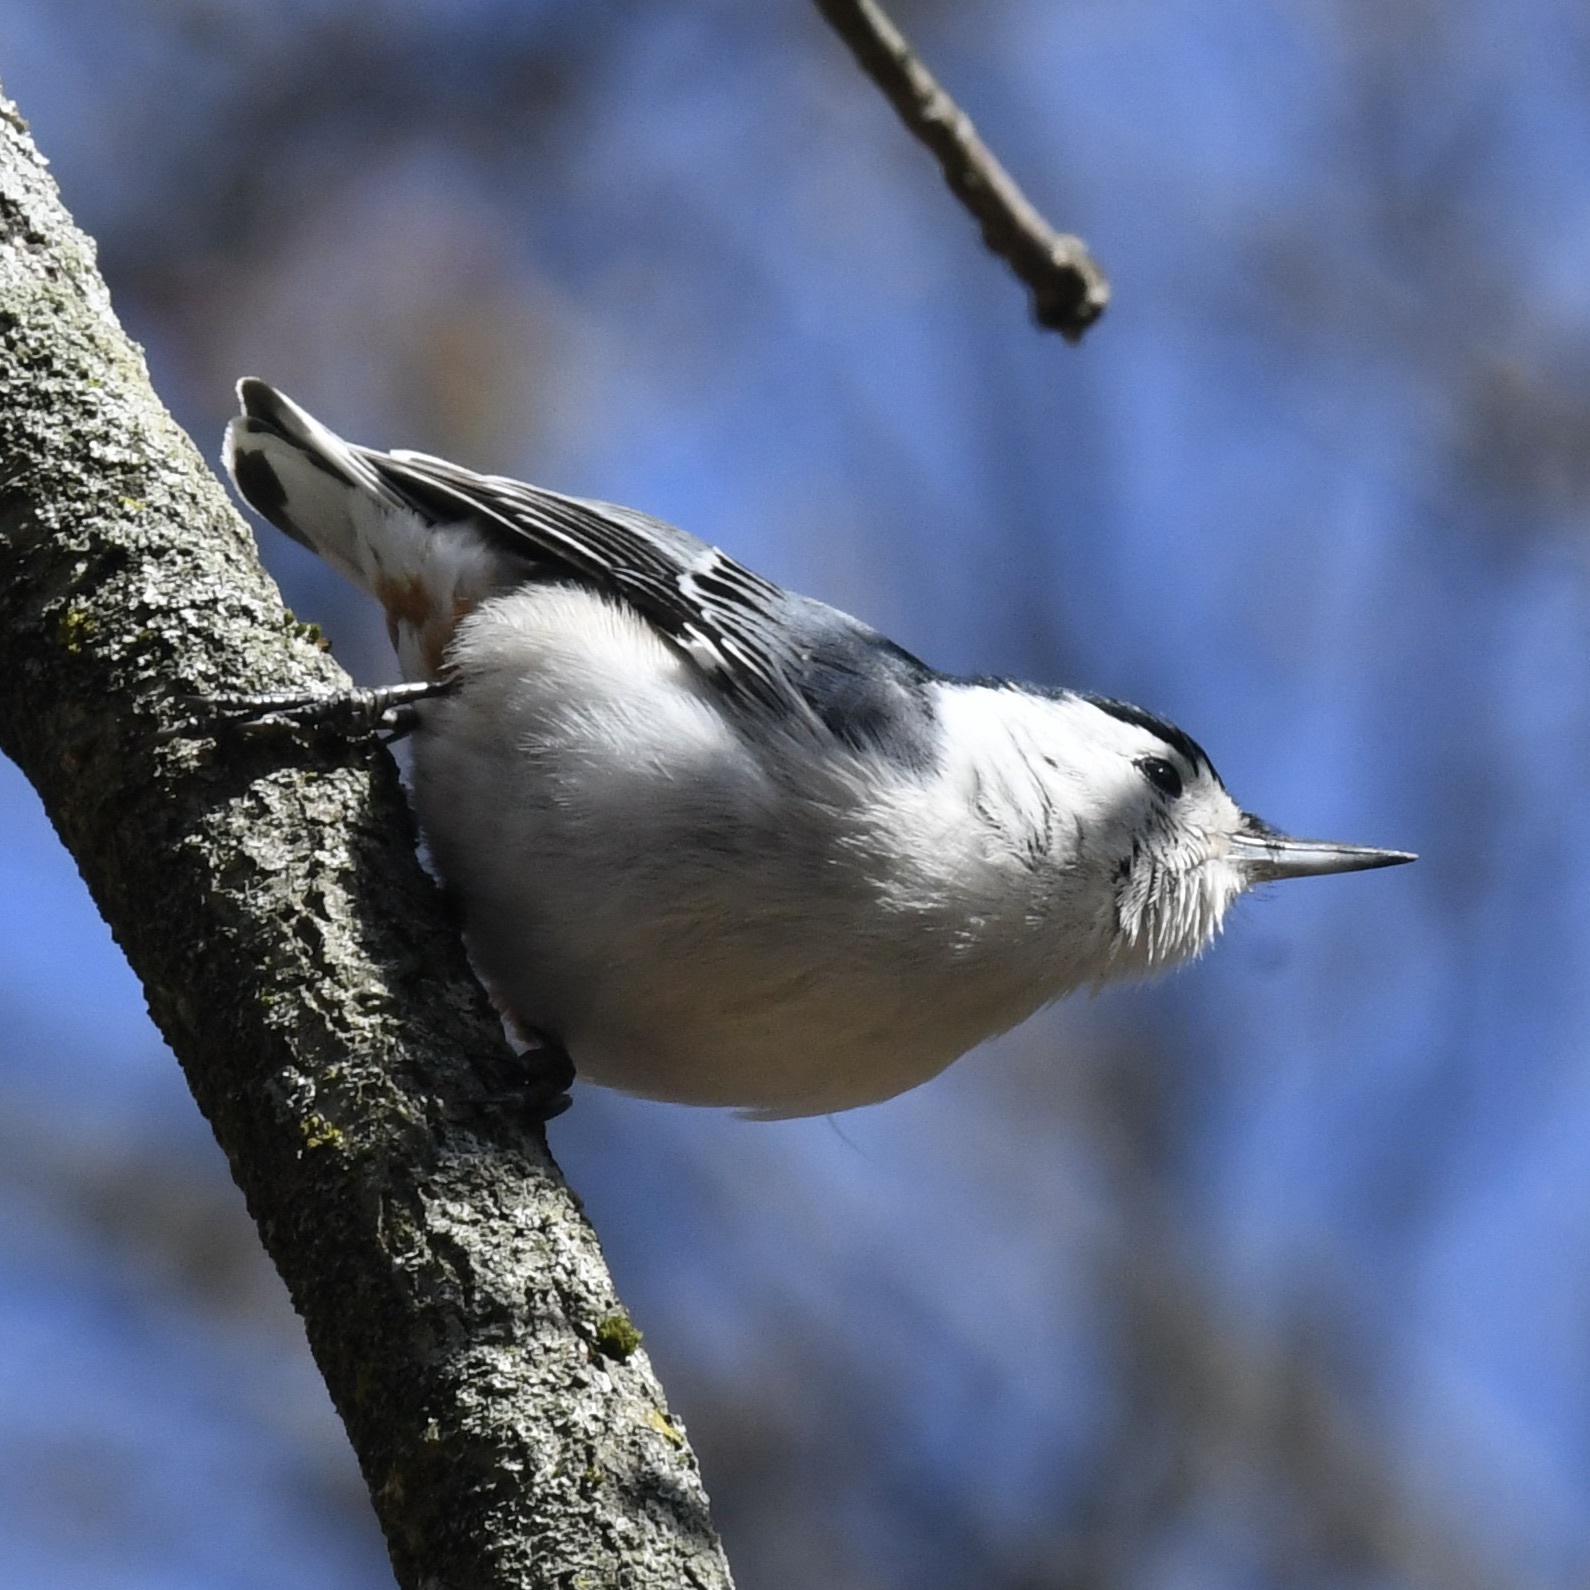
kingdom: Animalia
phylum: Chordata
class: Aves
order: Passeriformes
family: Sittidae
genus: Sitta
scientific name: Sitta carolinensis
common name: White-breasted nuthatch
